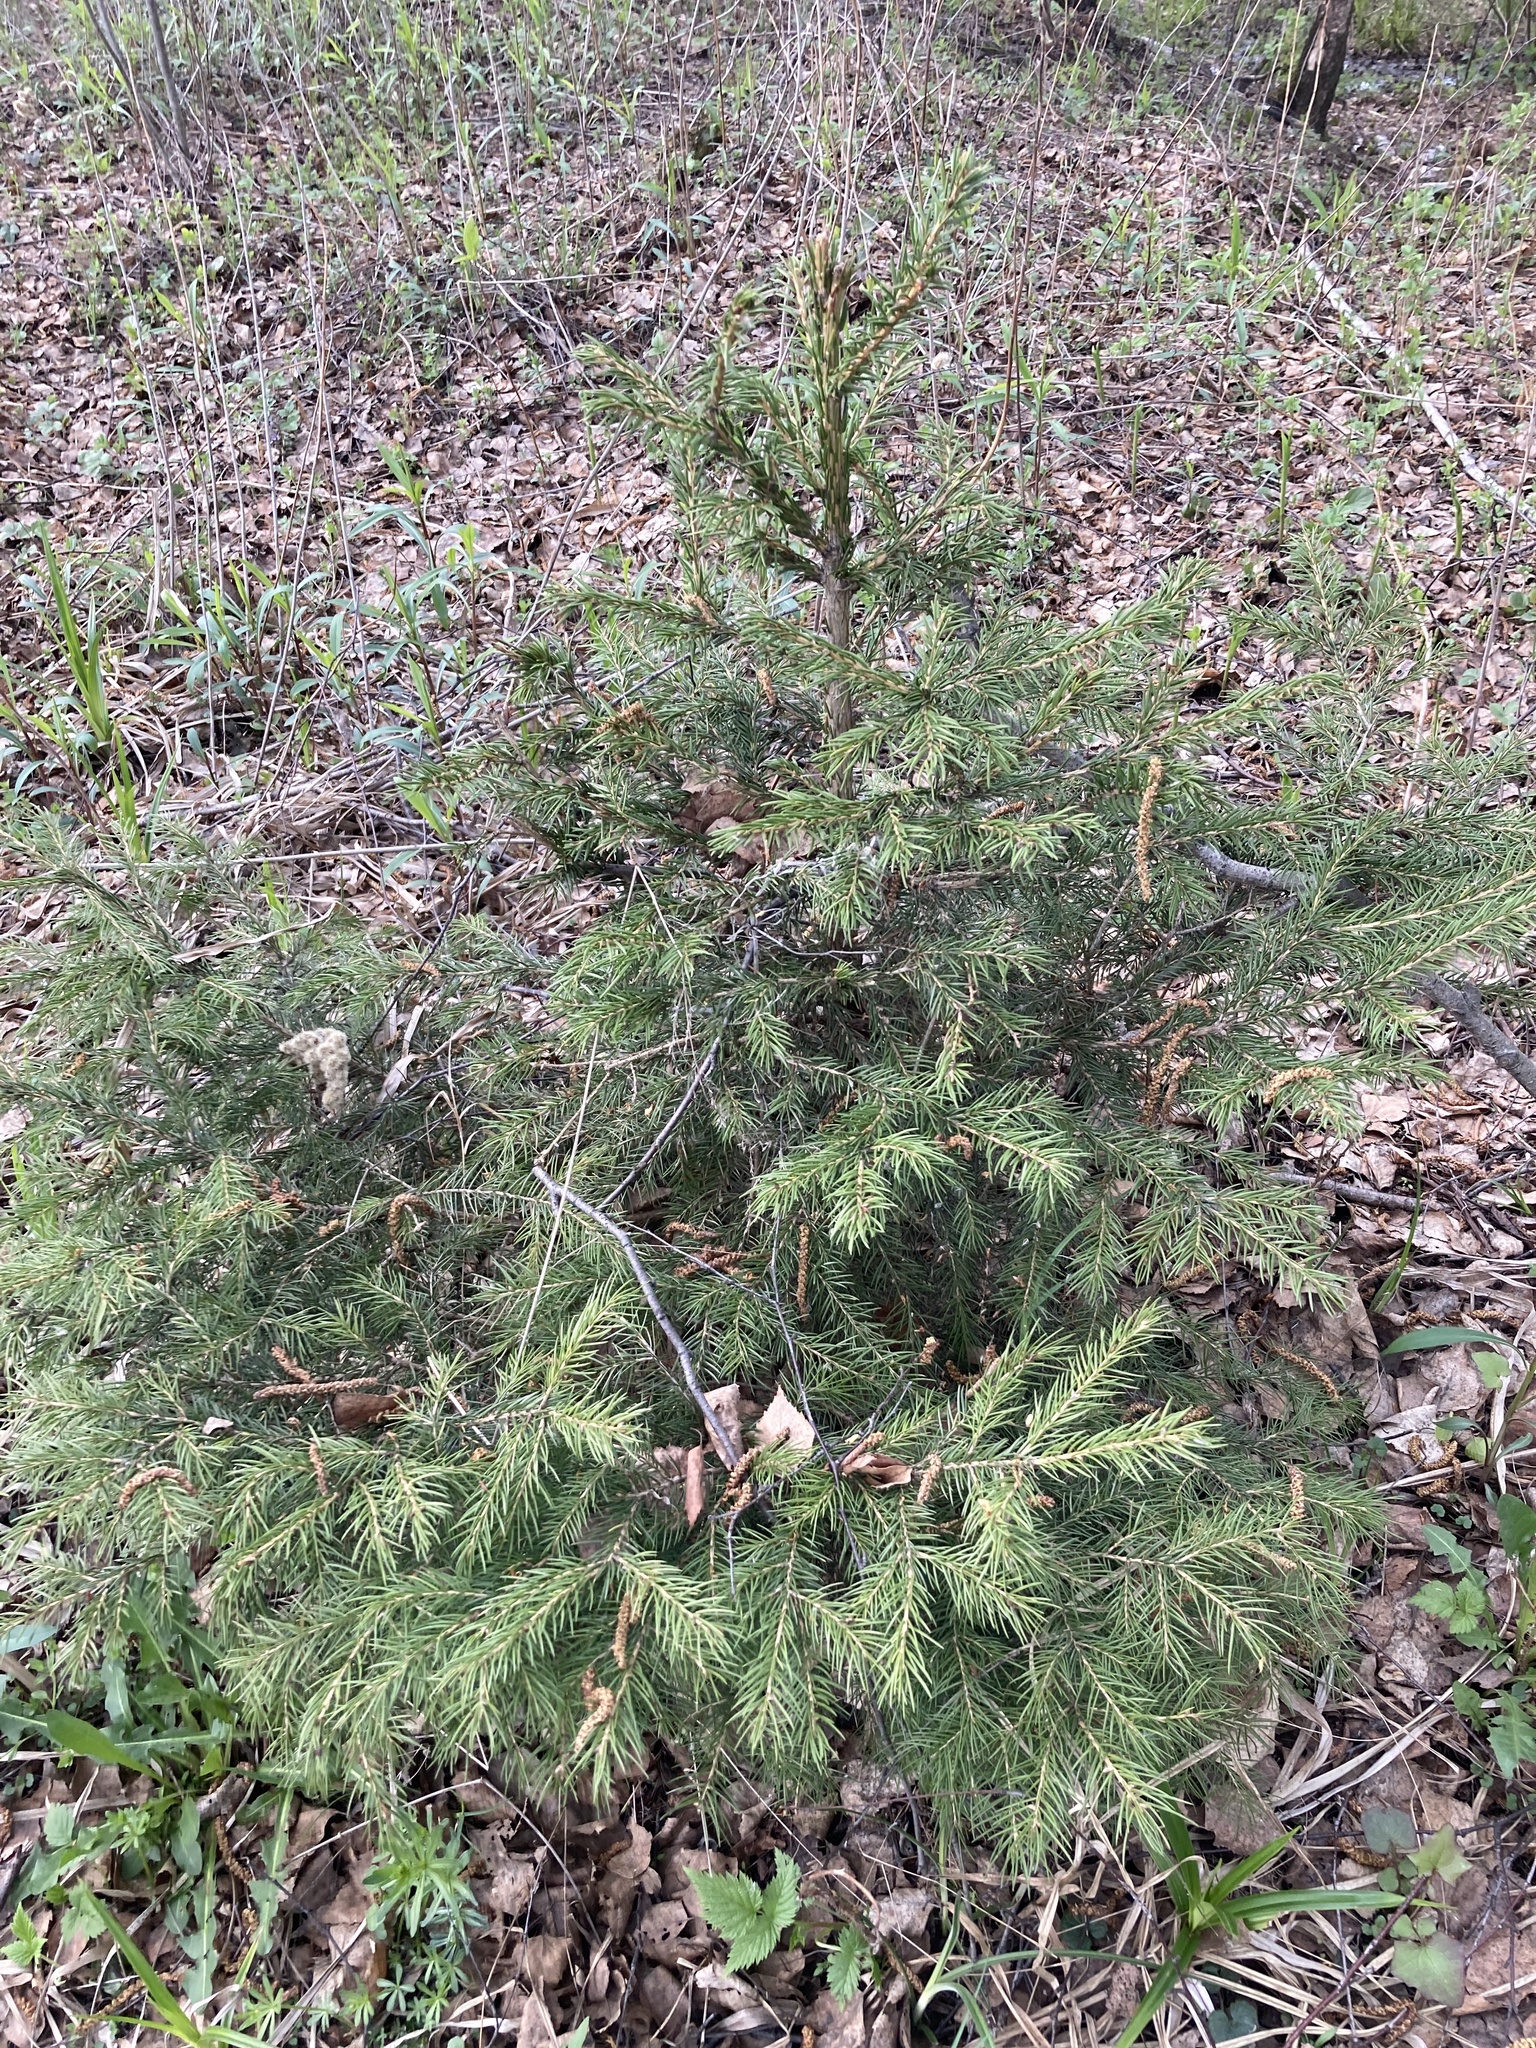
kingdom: Plantae
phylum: Tracheophyta
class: Pinopsida
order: Pinales
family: Pinaceae
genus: Picea
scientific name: Picea abies
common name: Norway spruce
